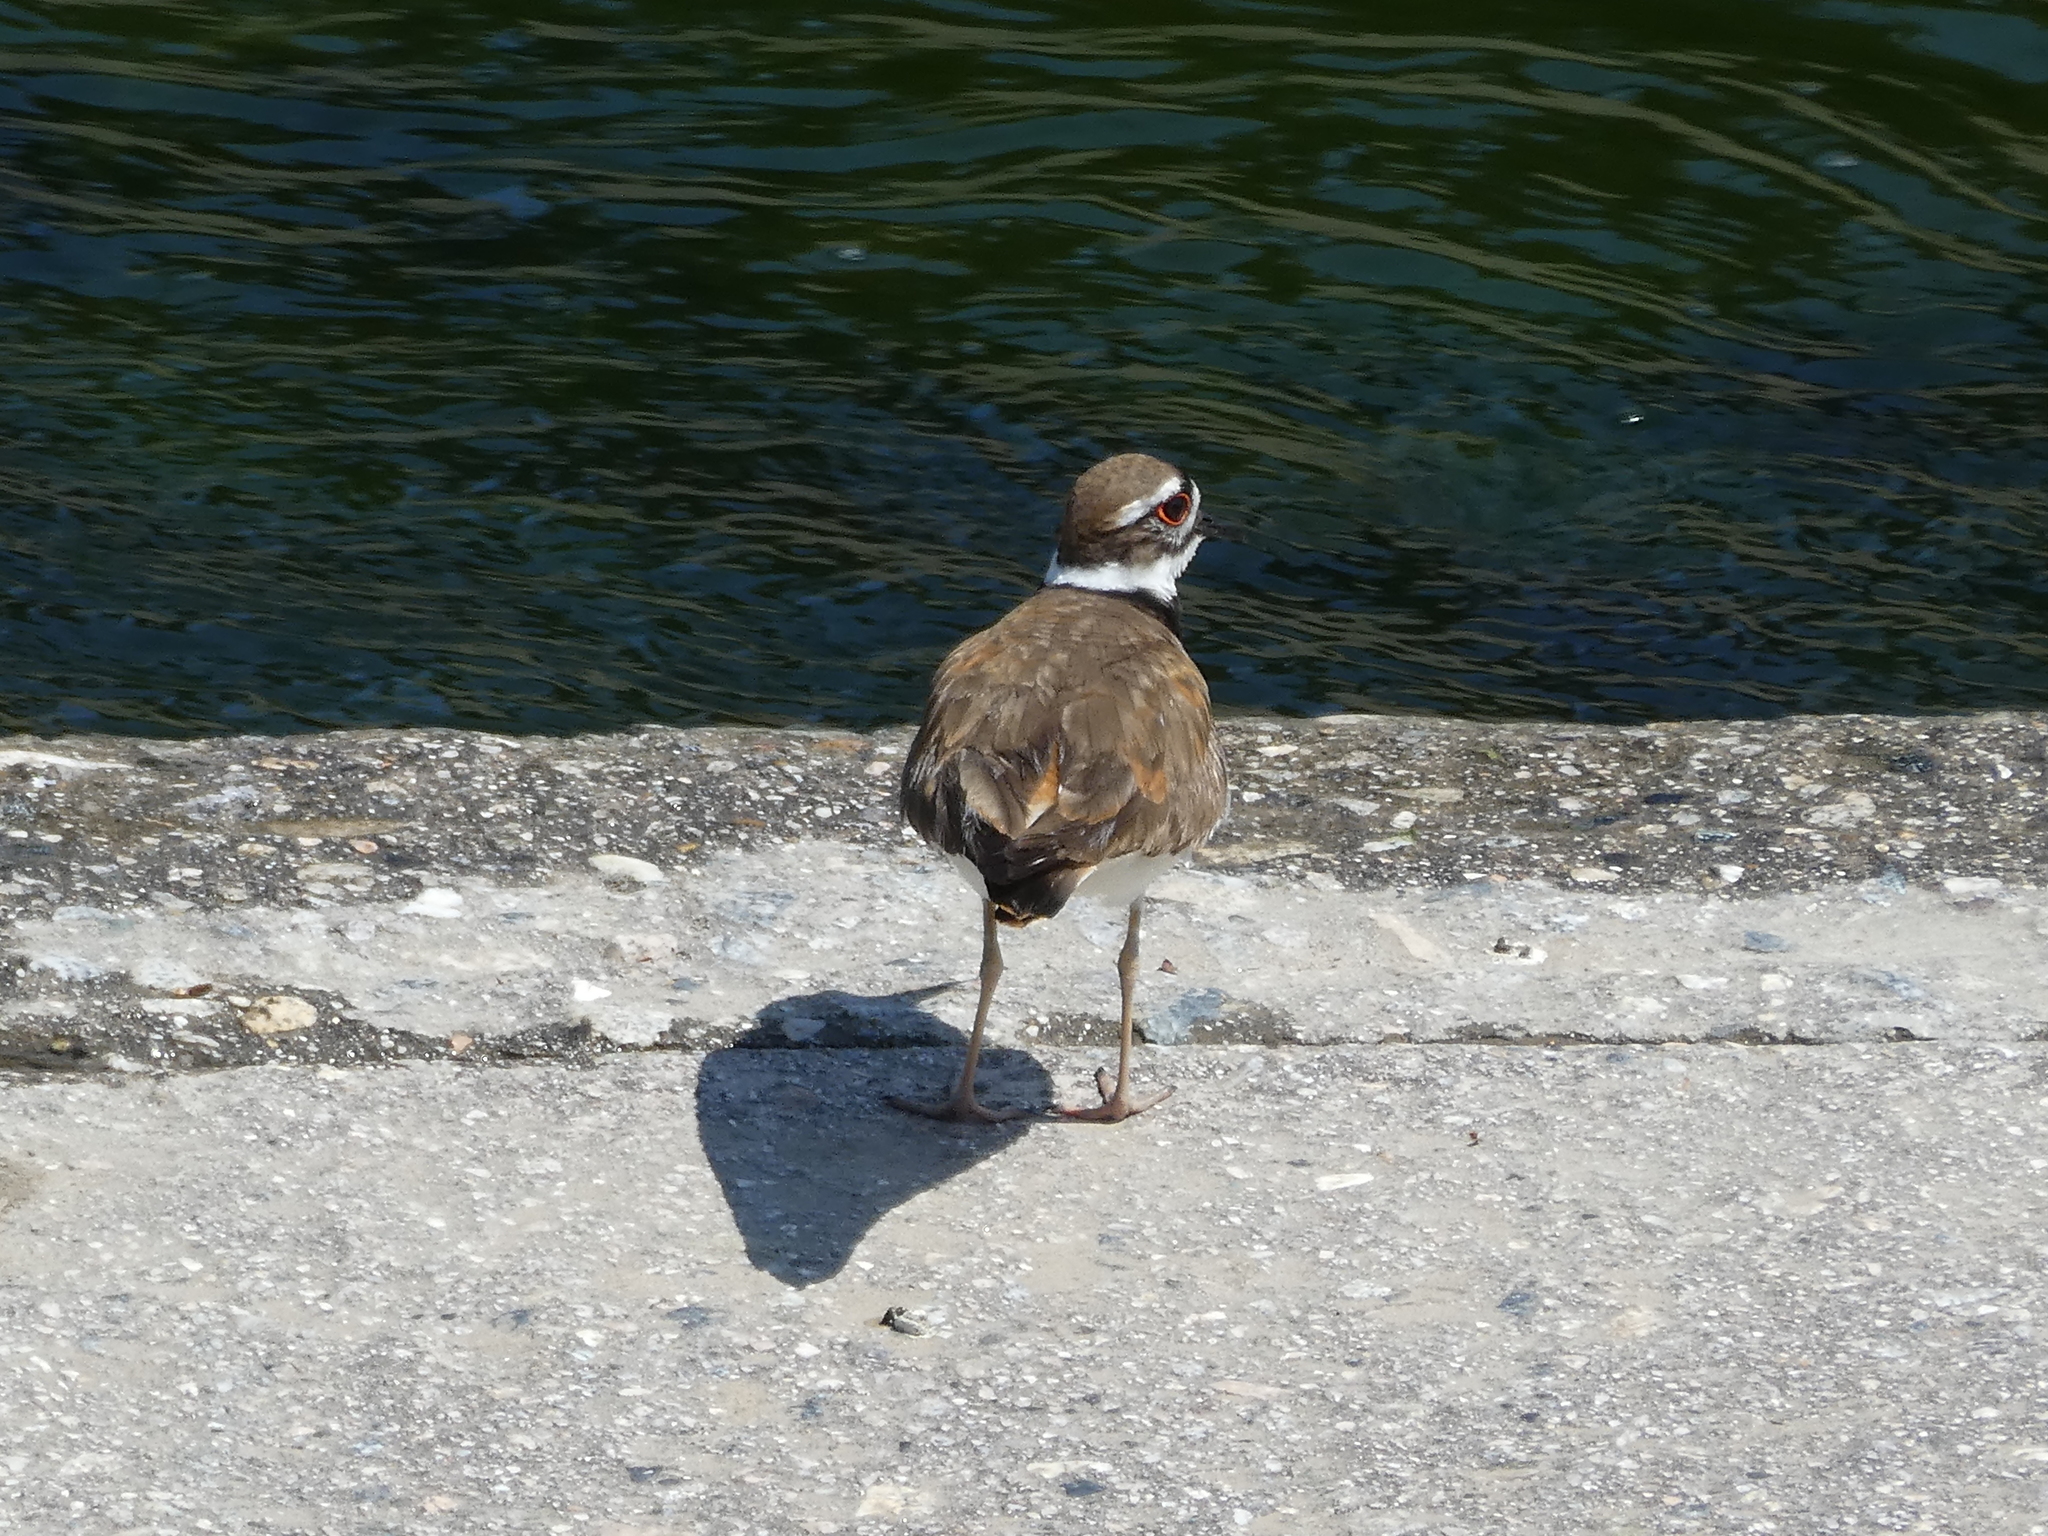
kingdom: Animalia
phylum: Chordata
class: Aves
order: Charadriiformes
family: Charadriidae
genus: Charadrius
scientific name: Charadrius vociferus
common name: Killdeer
